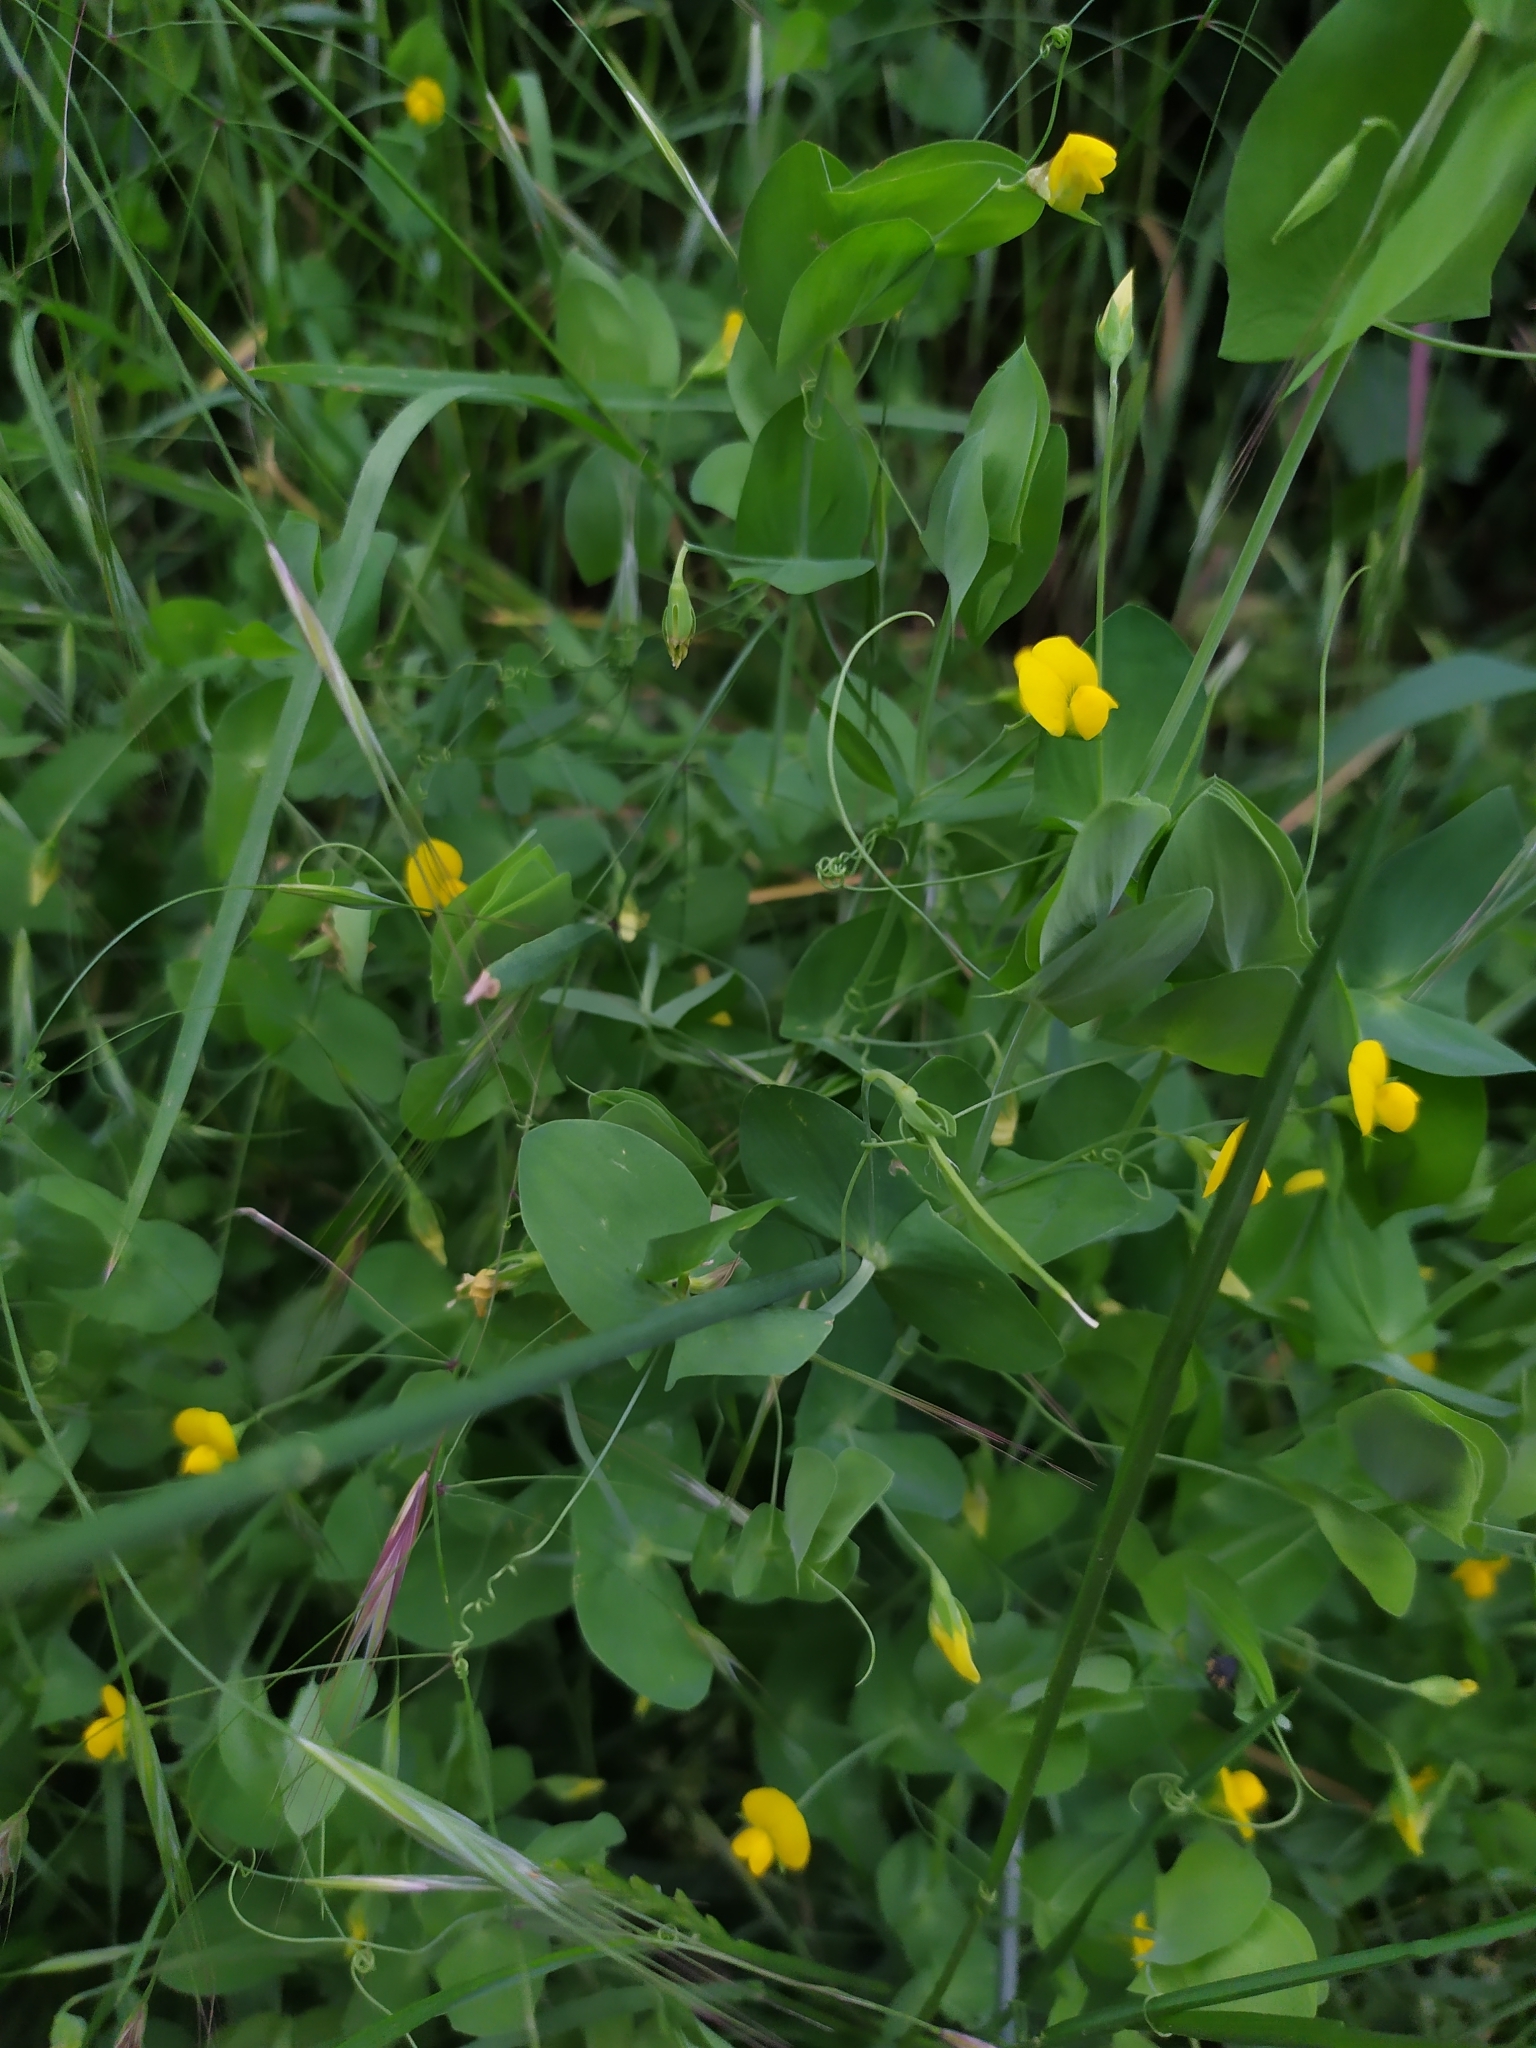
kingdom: Plantae
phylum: Tracheophyta
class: Magnoliopsida
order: Fabales
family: Fabaceae
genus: Lathyrus
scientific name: Lathyrus aphaca
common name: Yellow vetchling
